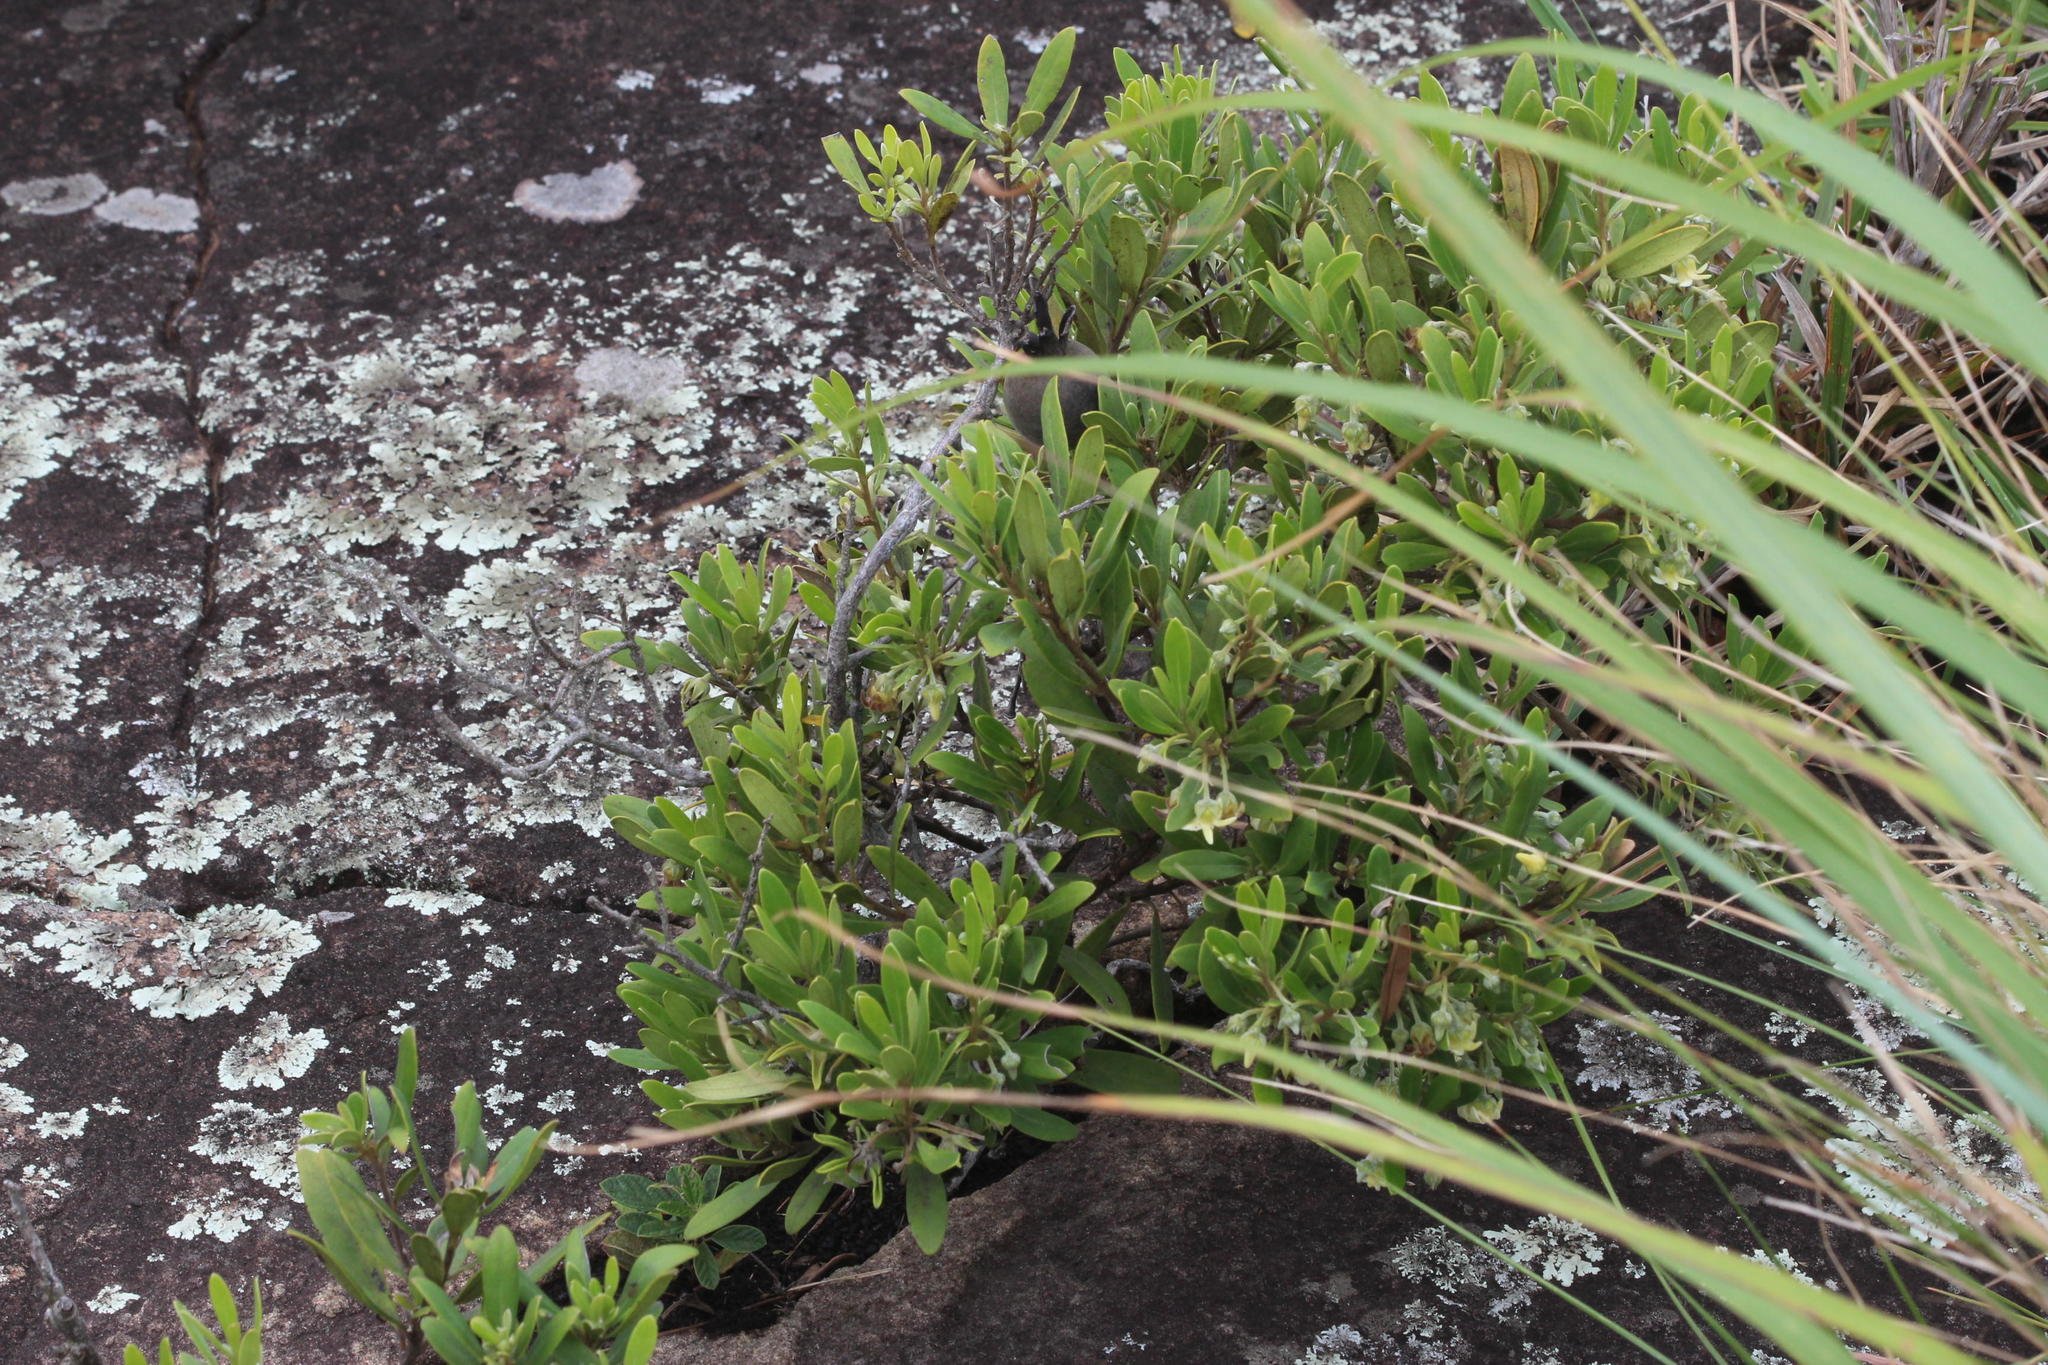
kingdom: Plantae
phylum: Tracheophyta
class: Magnoliopsida
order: Ericales
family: Ebenaceae
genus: Diospyros
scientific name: Diospyros dichrophylla
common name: Common star-apple
